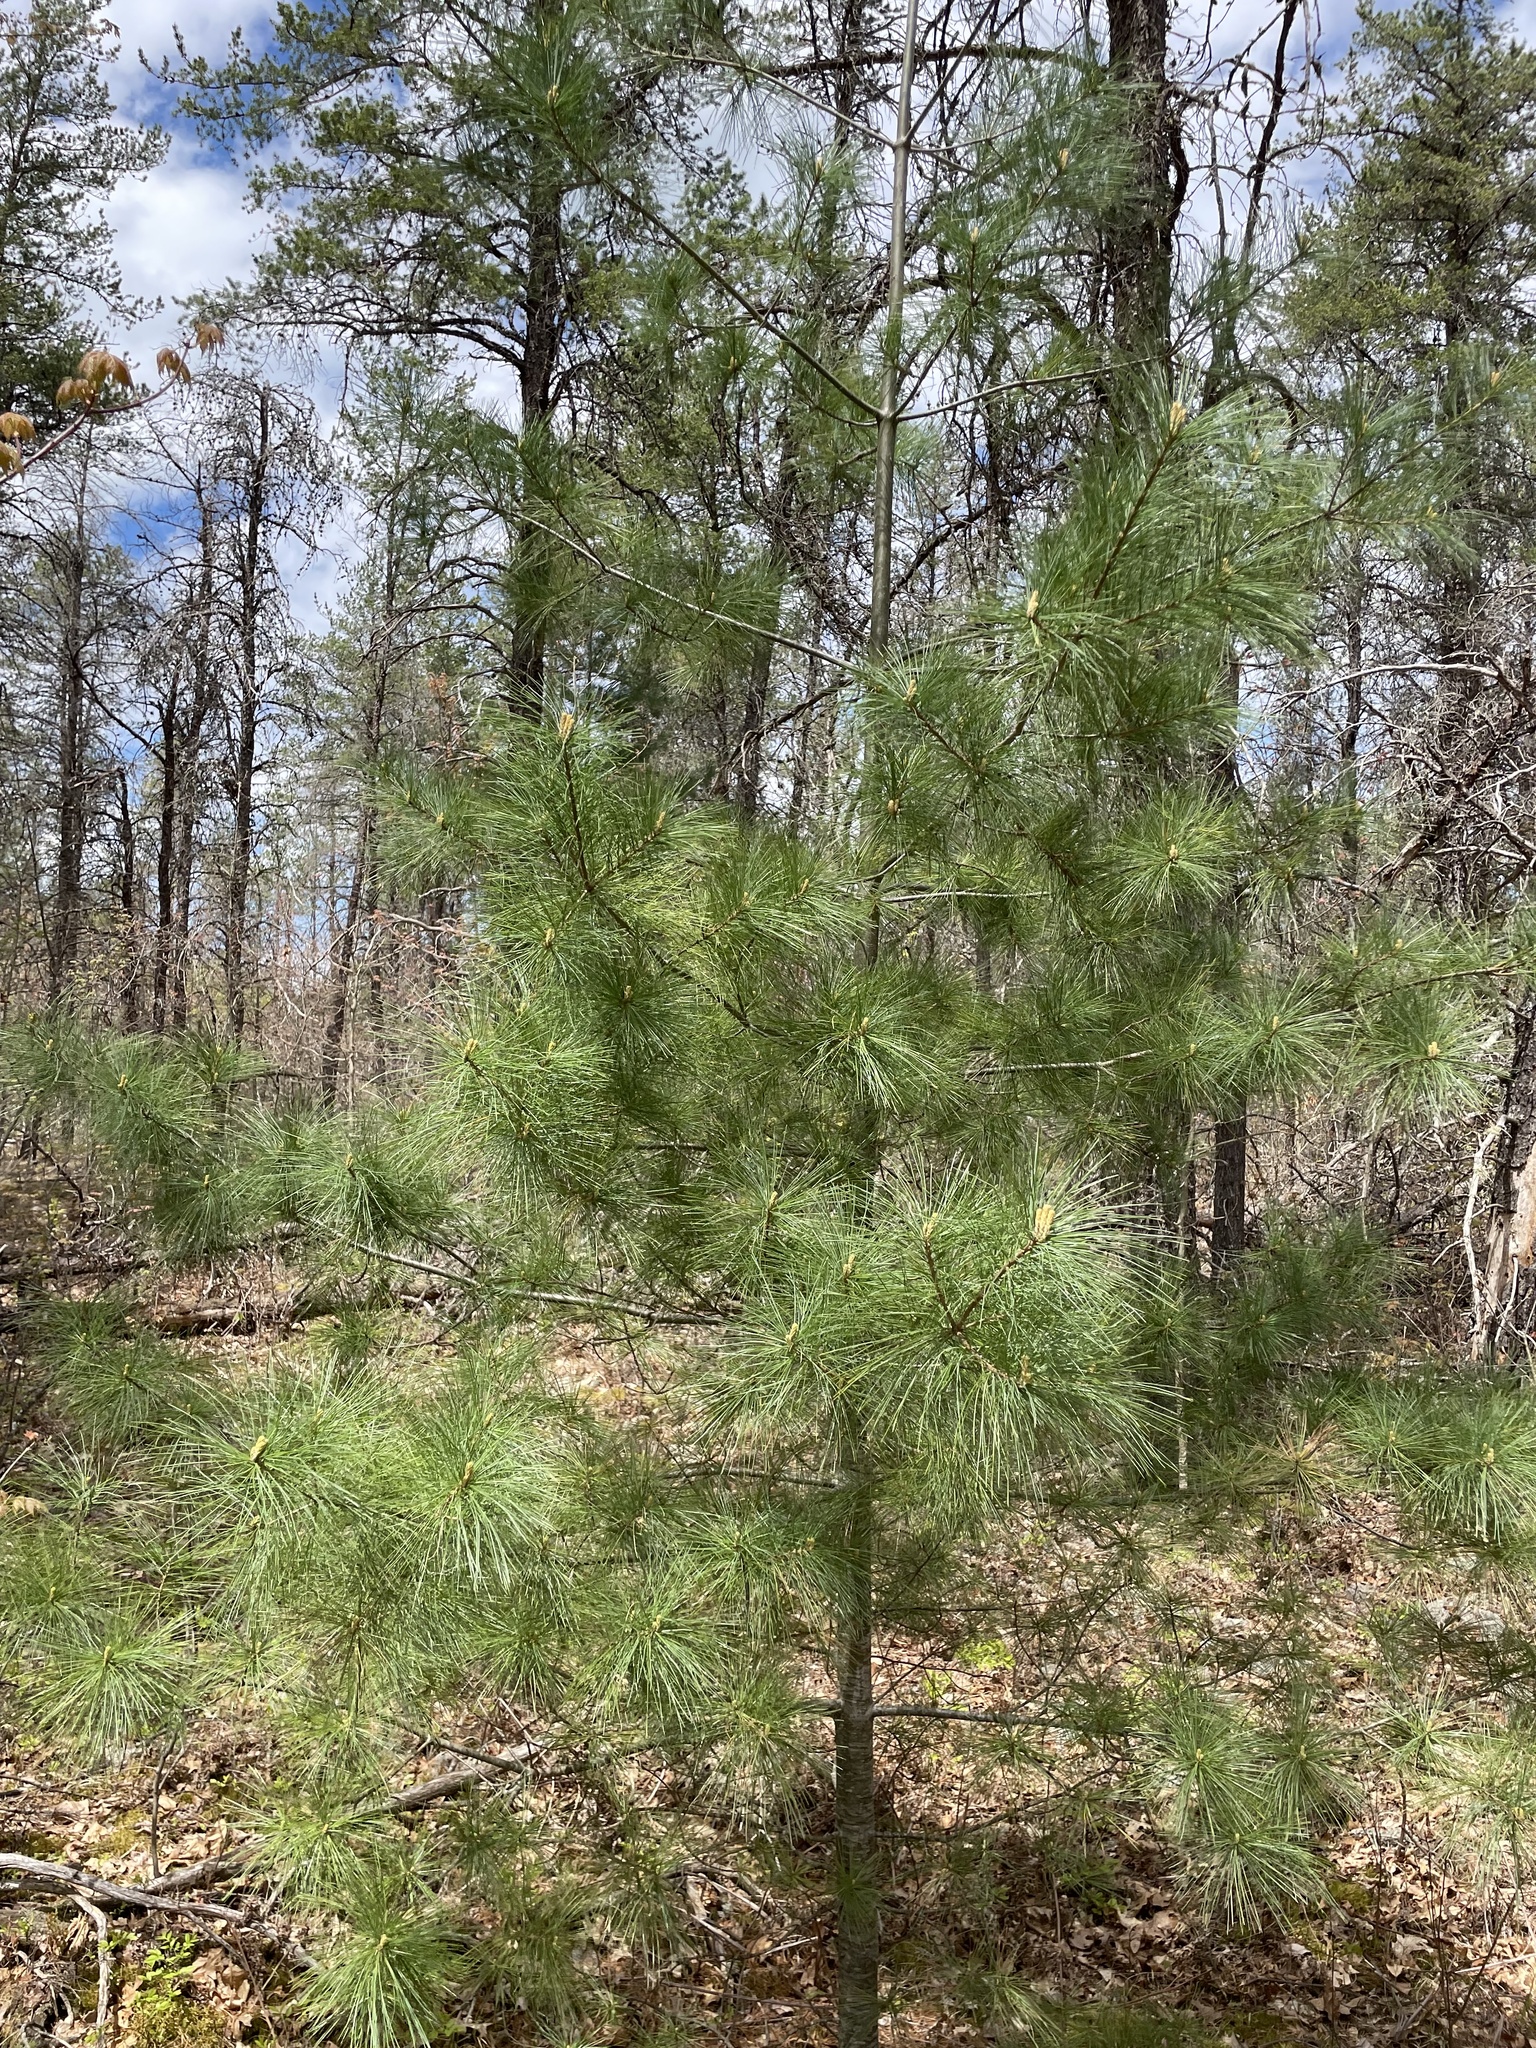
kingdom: Plantae
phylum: Tracheophyta
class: Pinopsida
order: Pinales
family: Pinaceae
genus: Pinus
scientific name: Pinus strobus
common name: Weymouth pine
